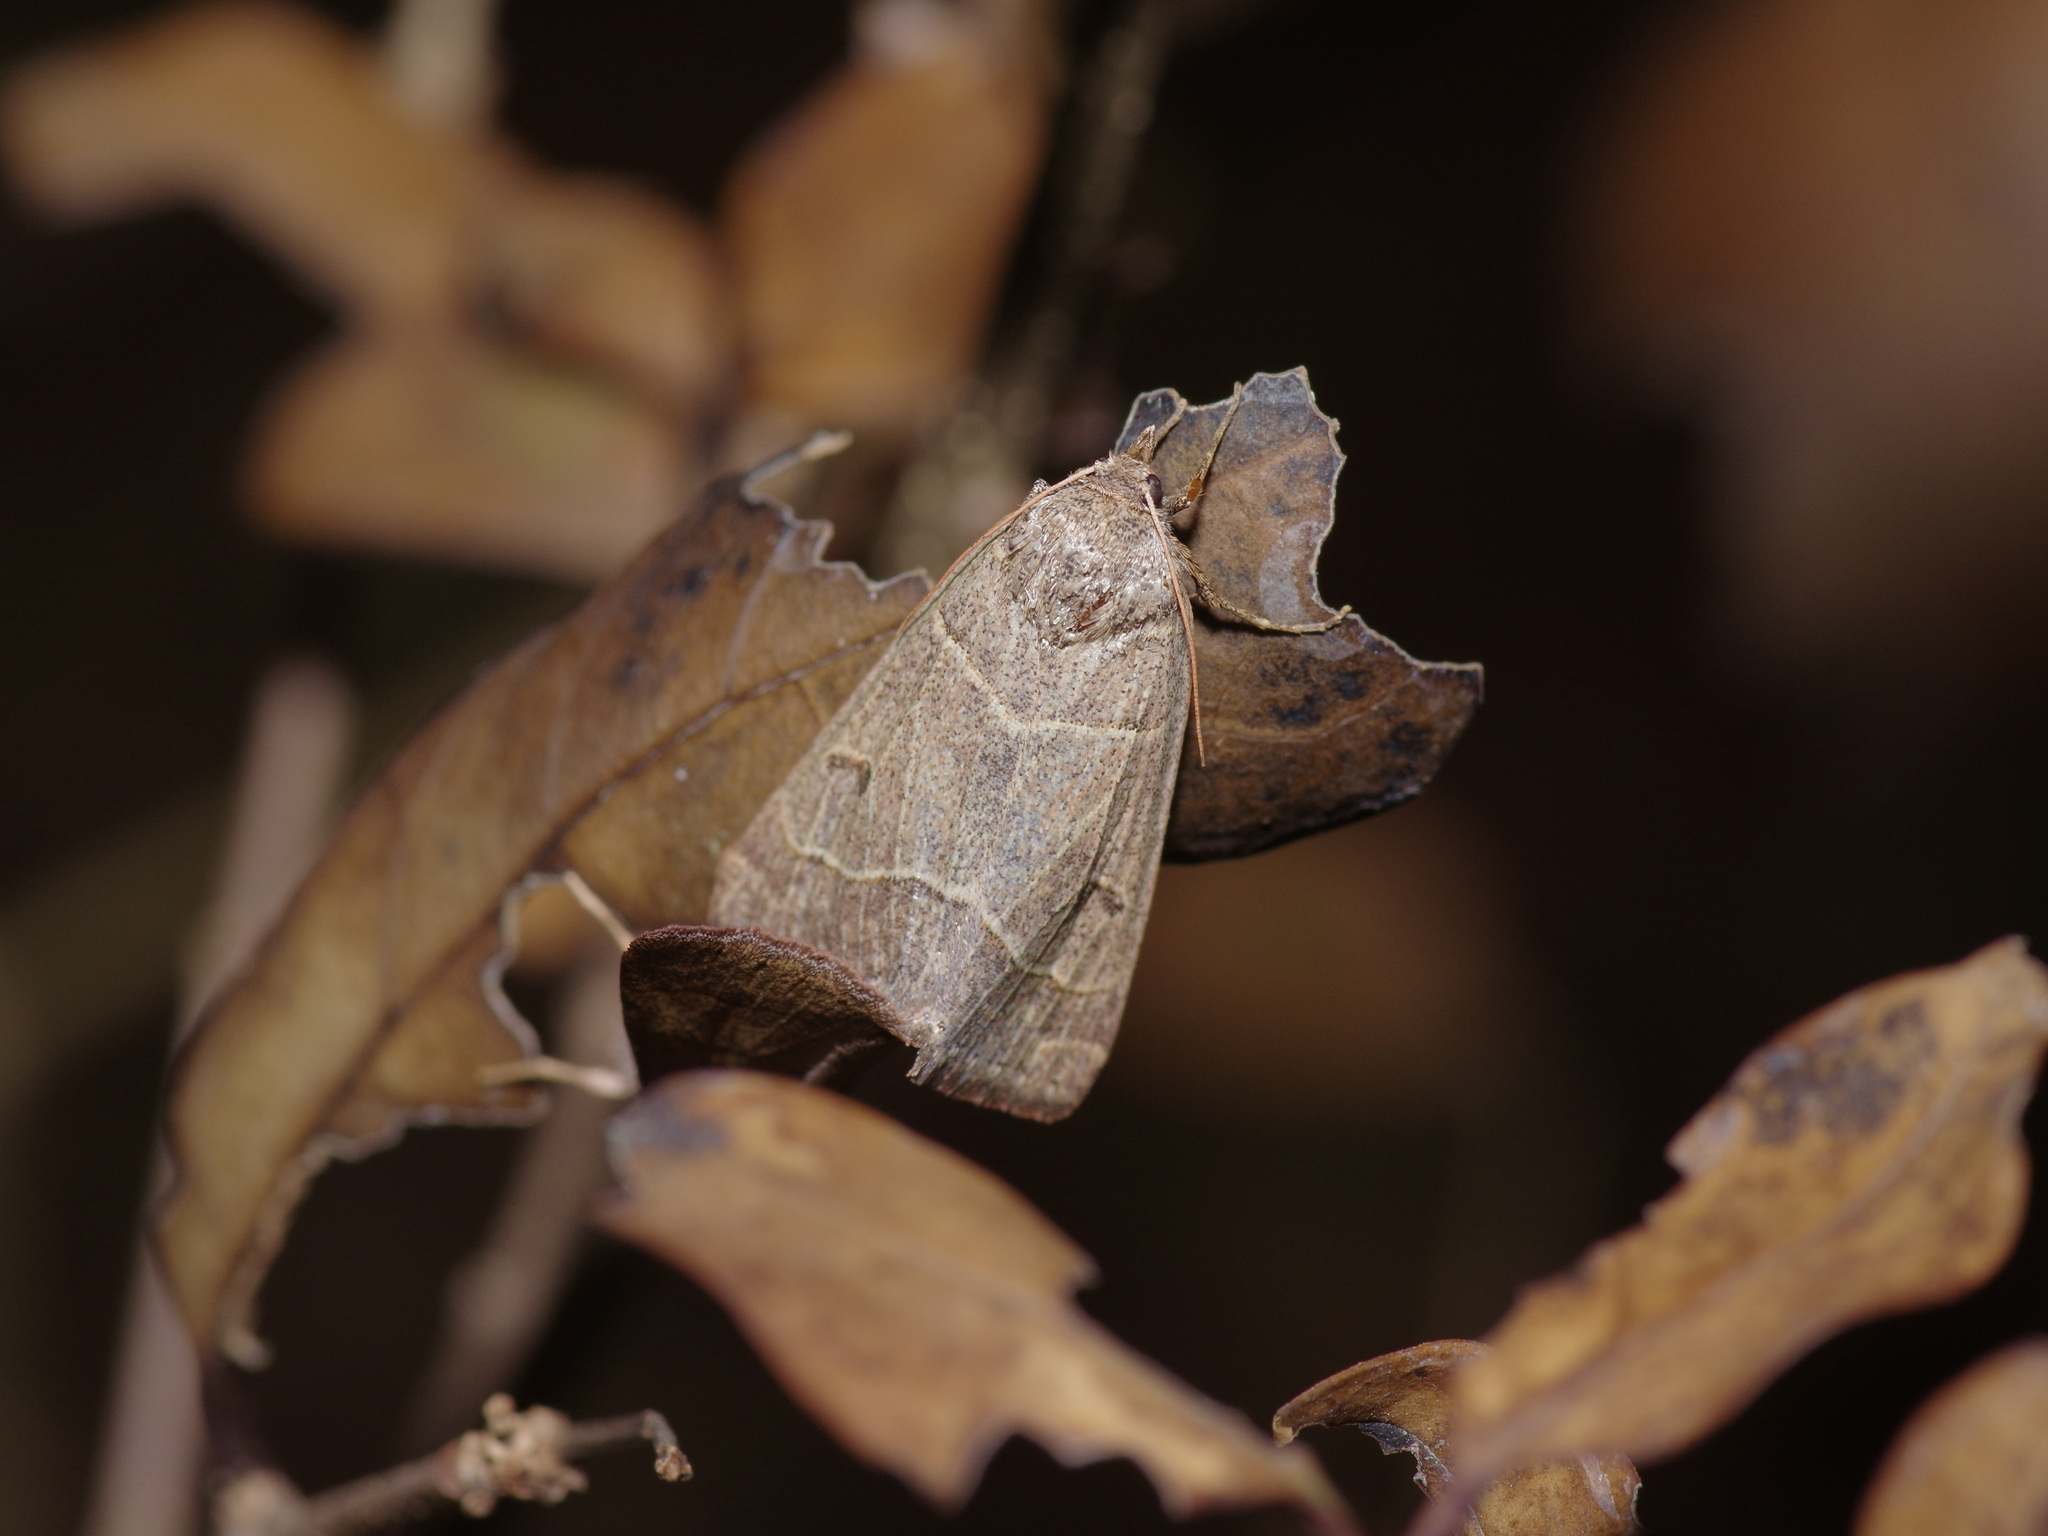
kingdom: Animalia
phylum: Arthropoda
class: Insecta
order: Lepidoptera
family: Erebidae
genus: Phoberia
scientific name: Phoberia atomaris
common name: Common oak moth
